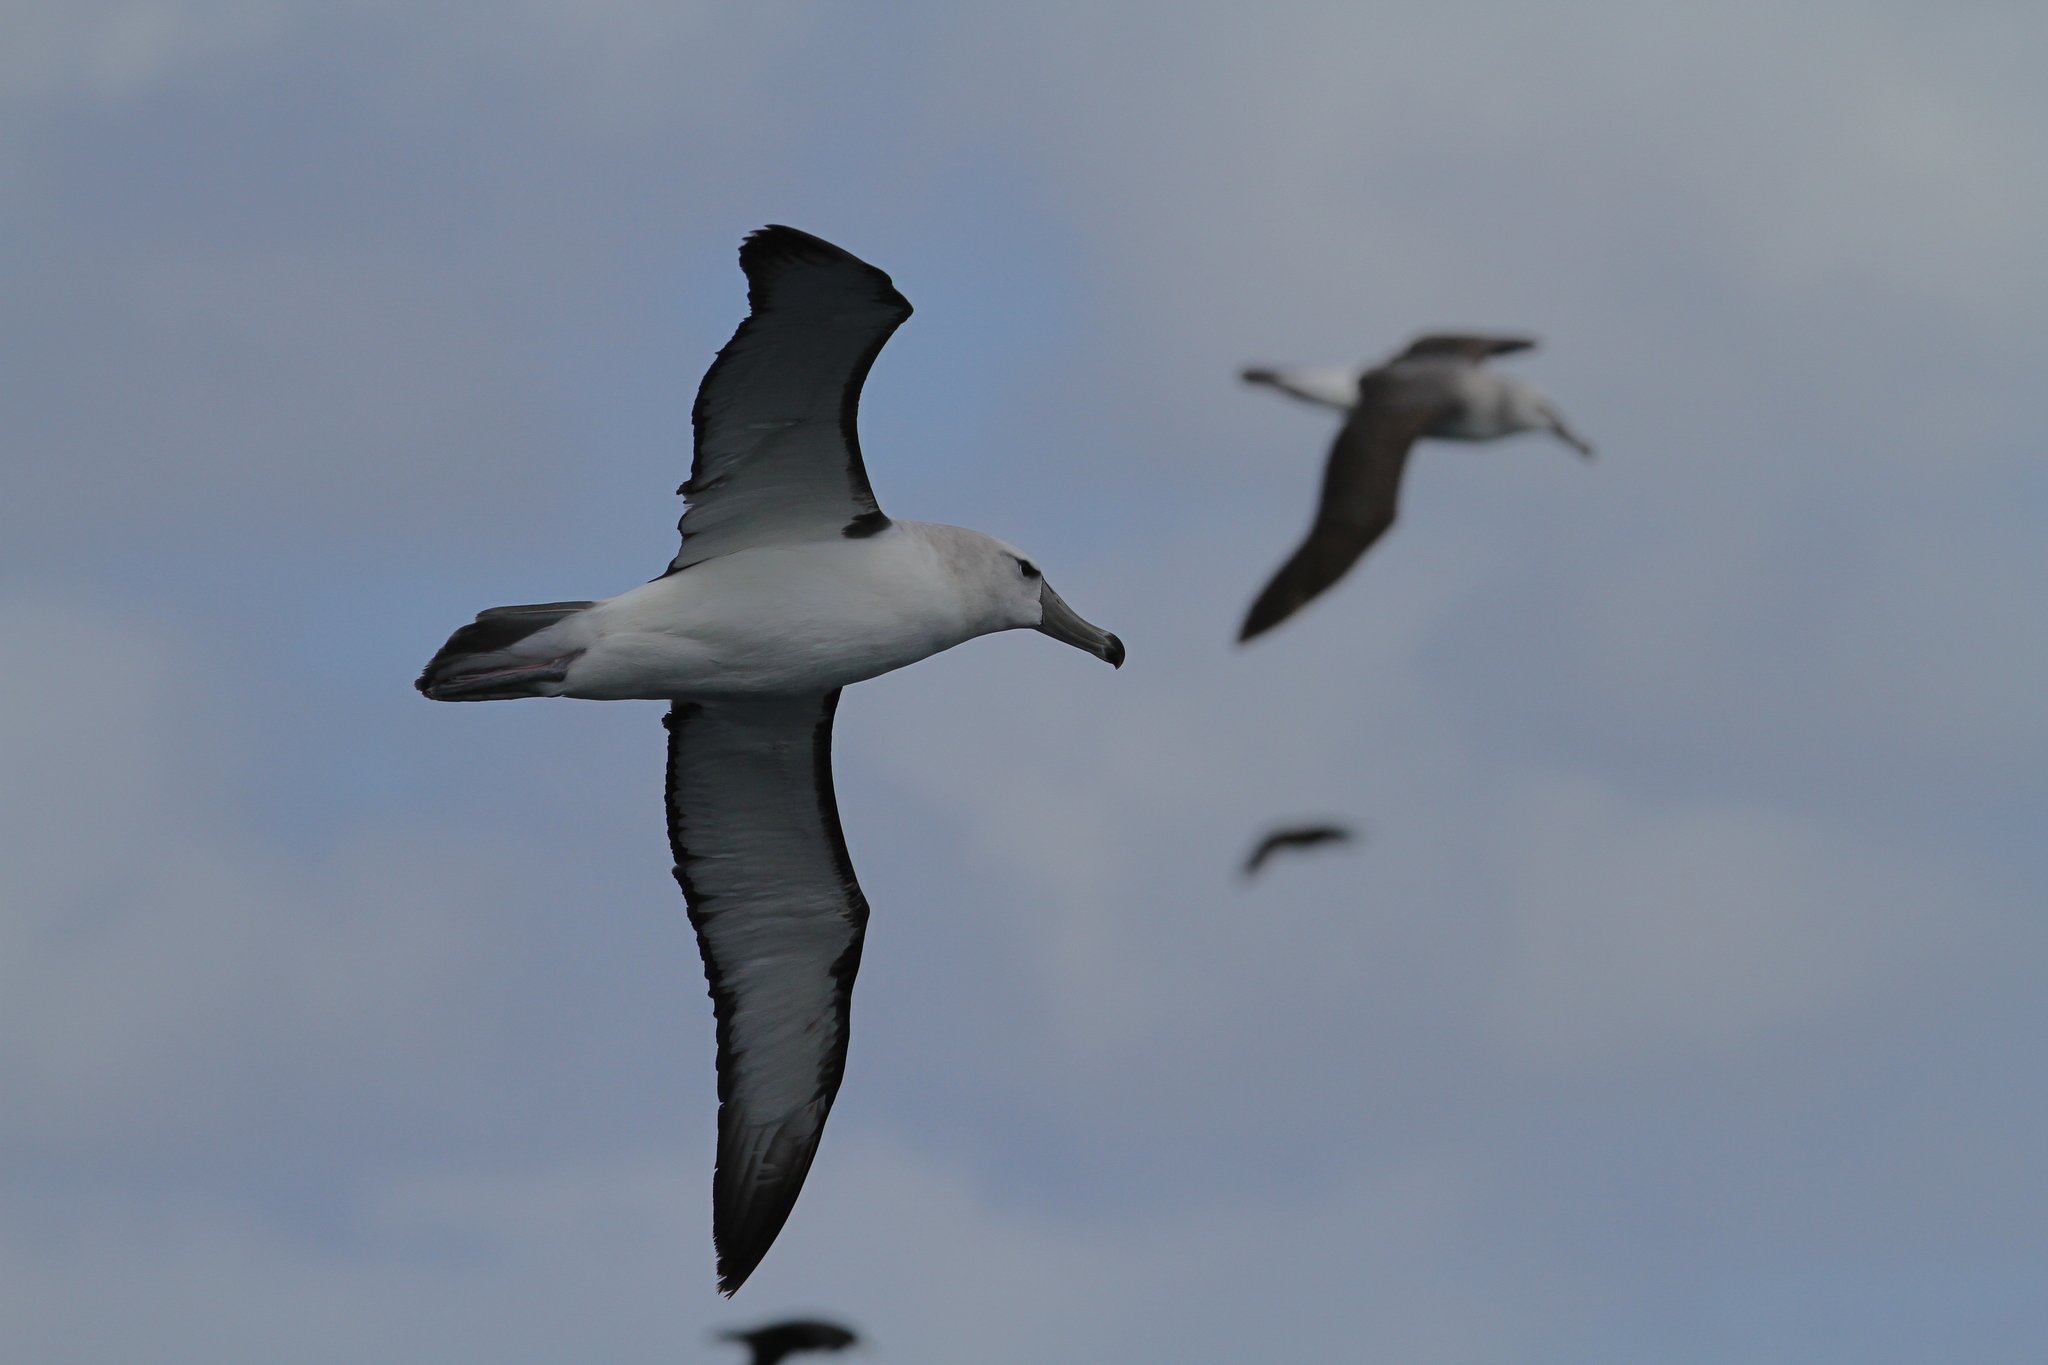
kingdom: Animalia
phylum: Chordata
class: Aves
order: Procellariiformes
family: Diomedeidae
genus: Thalassarche
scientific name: Thalassarche cauta
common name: Shy albatross
